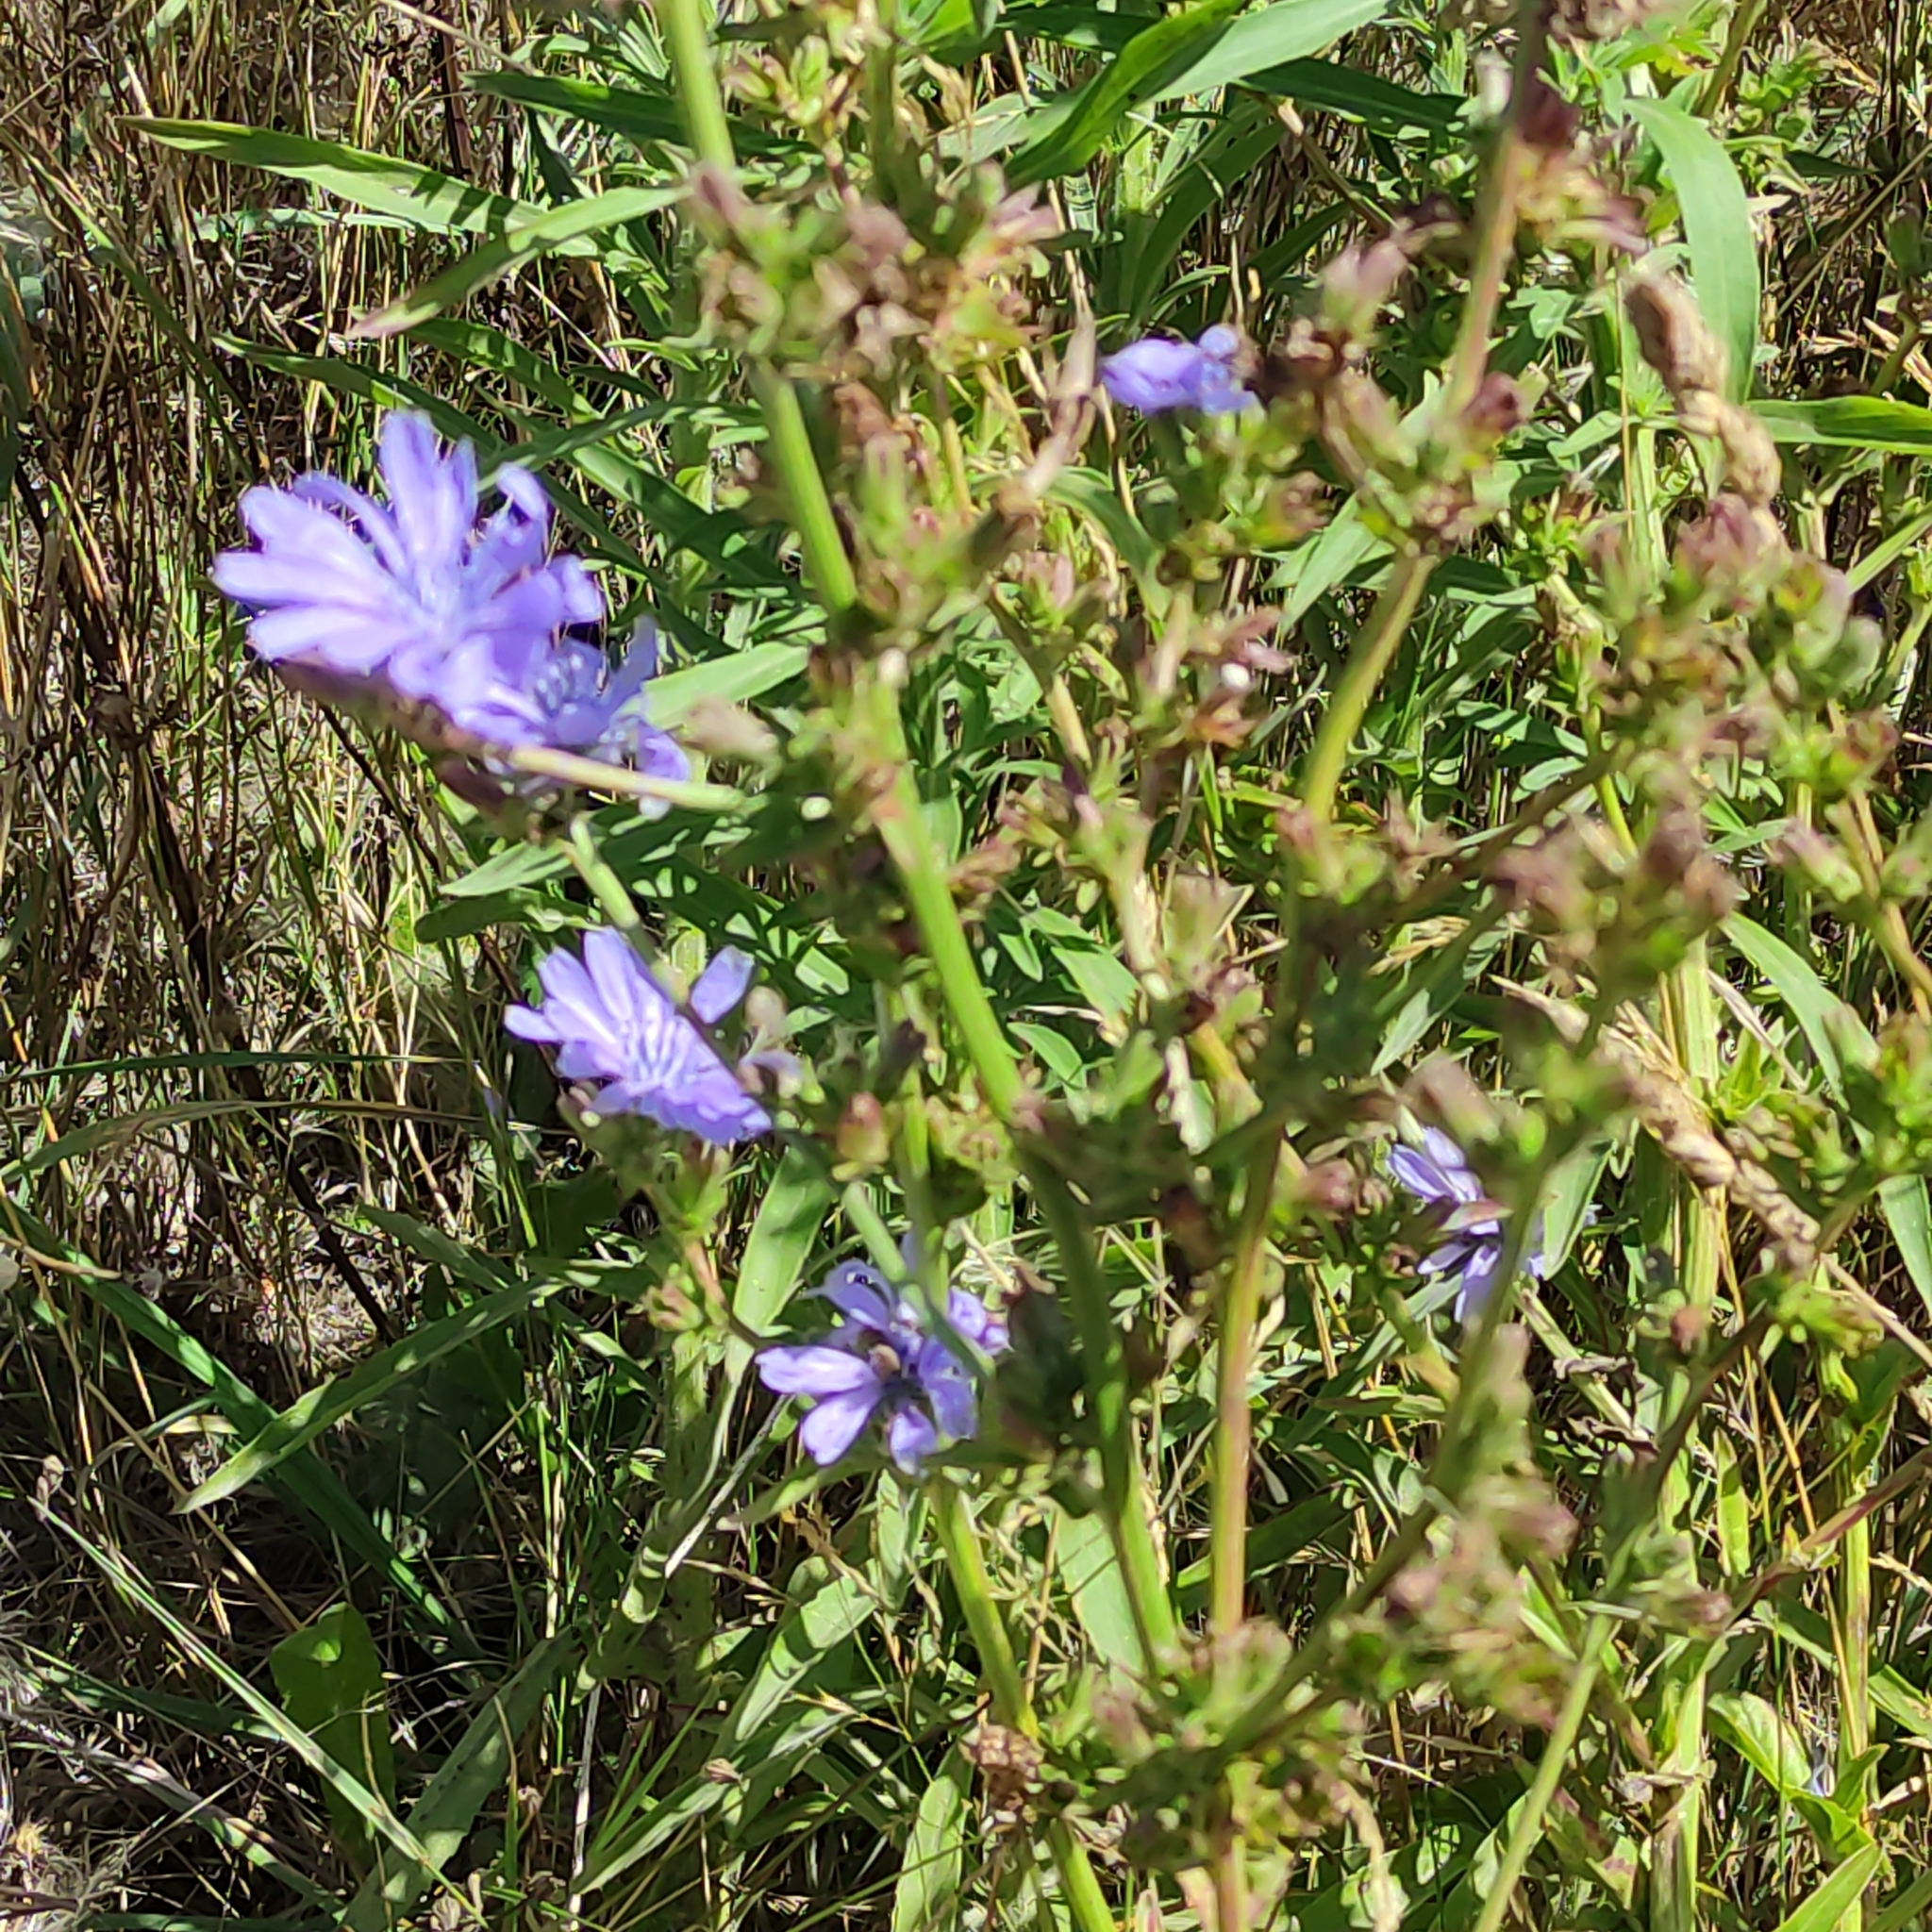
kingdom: Plantae
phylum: Tracheophyta
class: Magnoliopsida
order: Asterales
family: Asteraceae
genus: Cichorium
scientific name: Cichorium intybus
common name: Chicory
